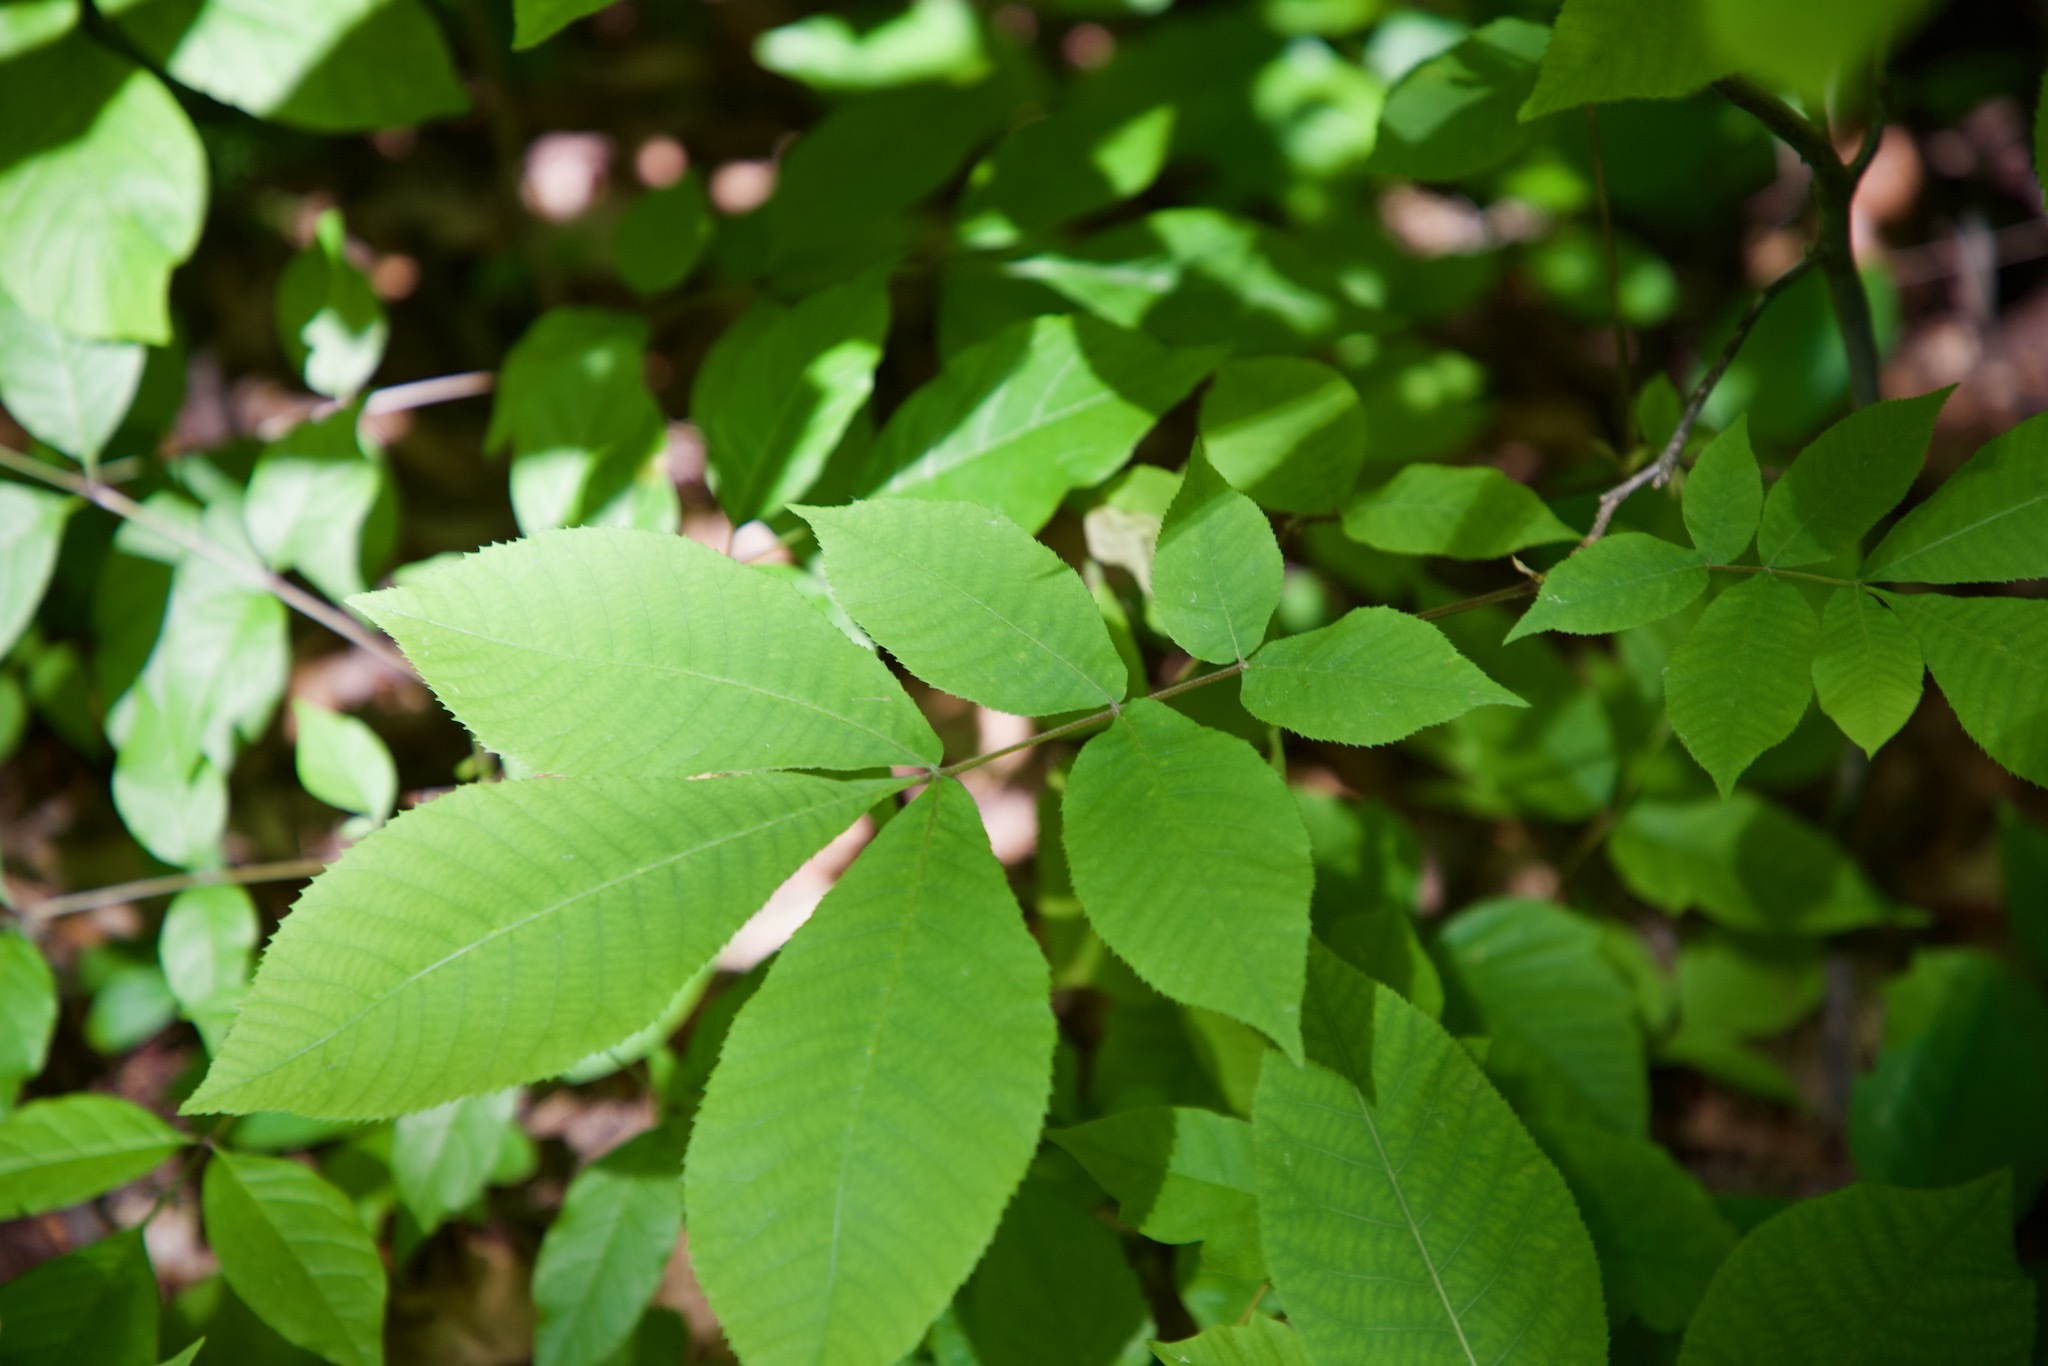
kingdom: Plantae
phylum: Tracheophyta
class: Magnoliopsida
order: Fagales
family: Juglandaceae
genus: Carya
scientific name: Carya cordiformis
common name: Bitternut hickory
